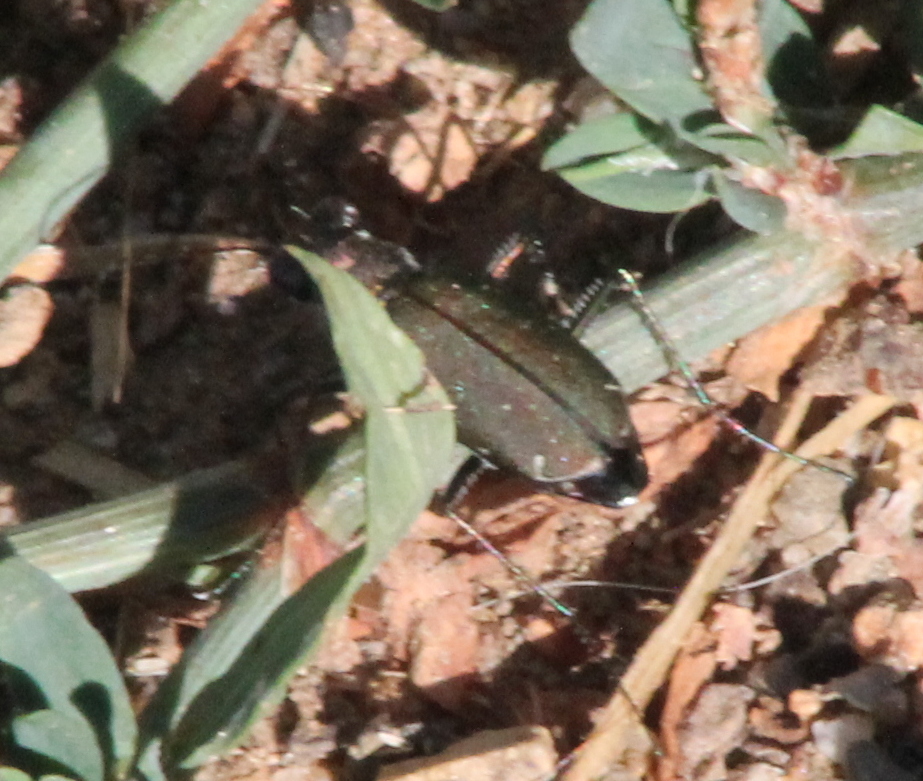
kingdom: Animalia
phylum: Arthropoda
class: Insecta
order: Coleoptera
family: Carabidae
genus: Cicindela
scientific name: Cicindela punctulata
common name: Punctured tiger beetle
